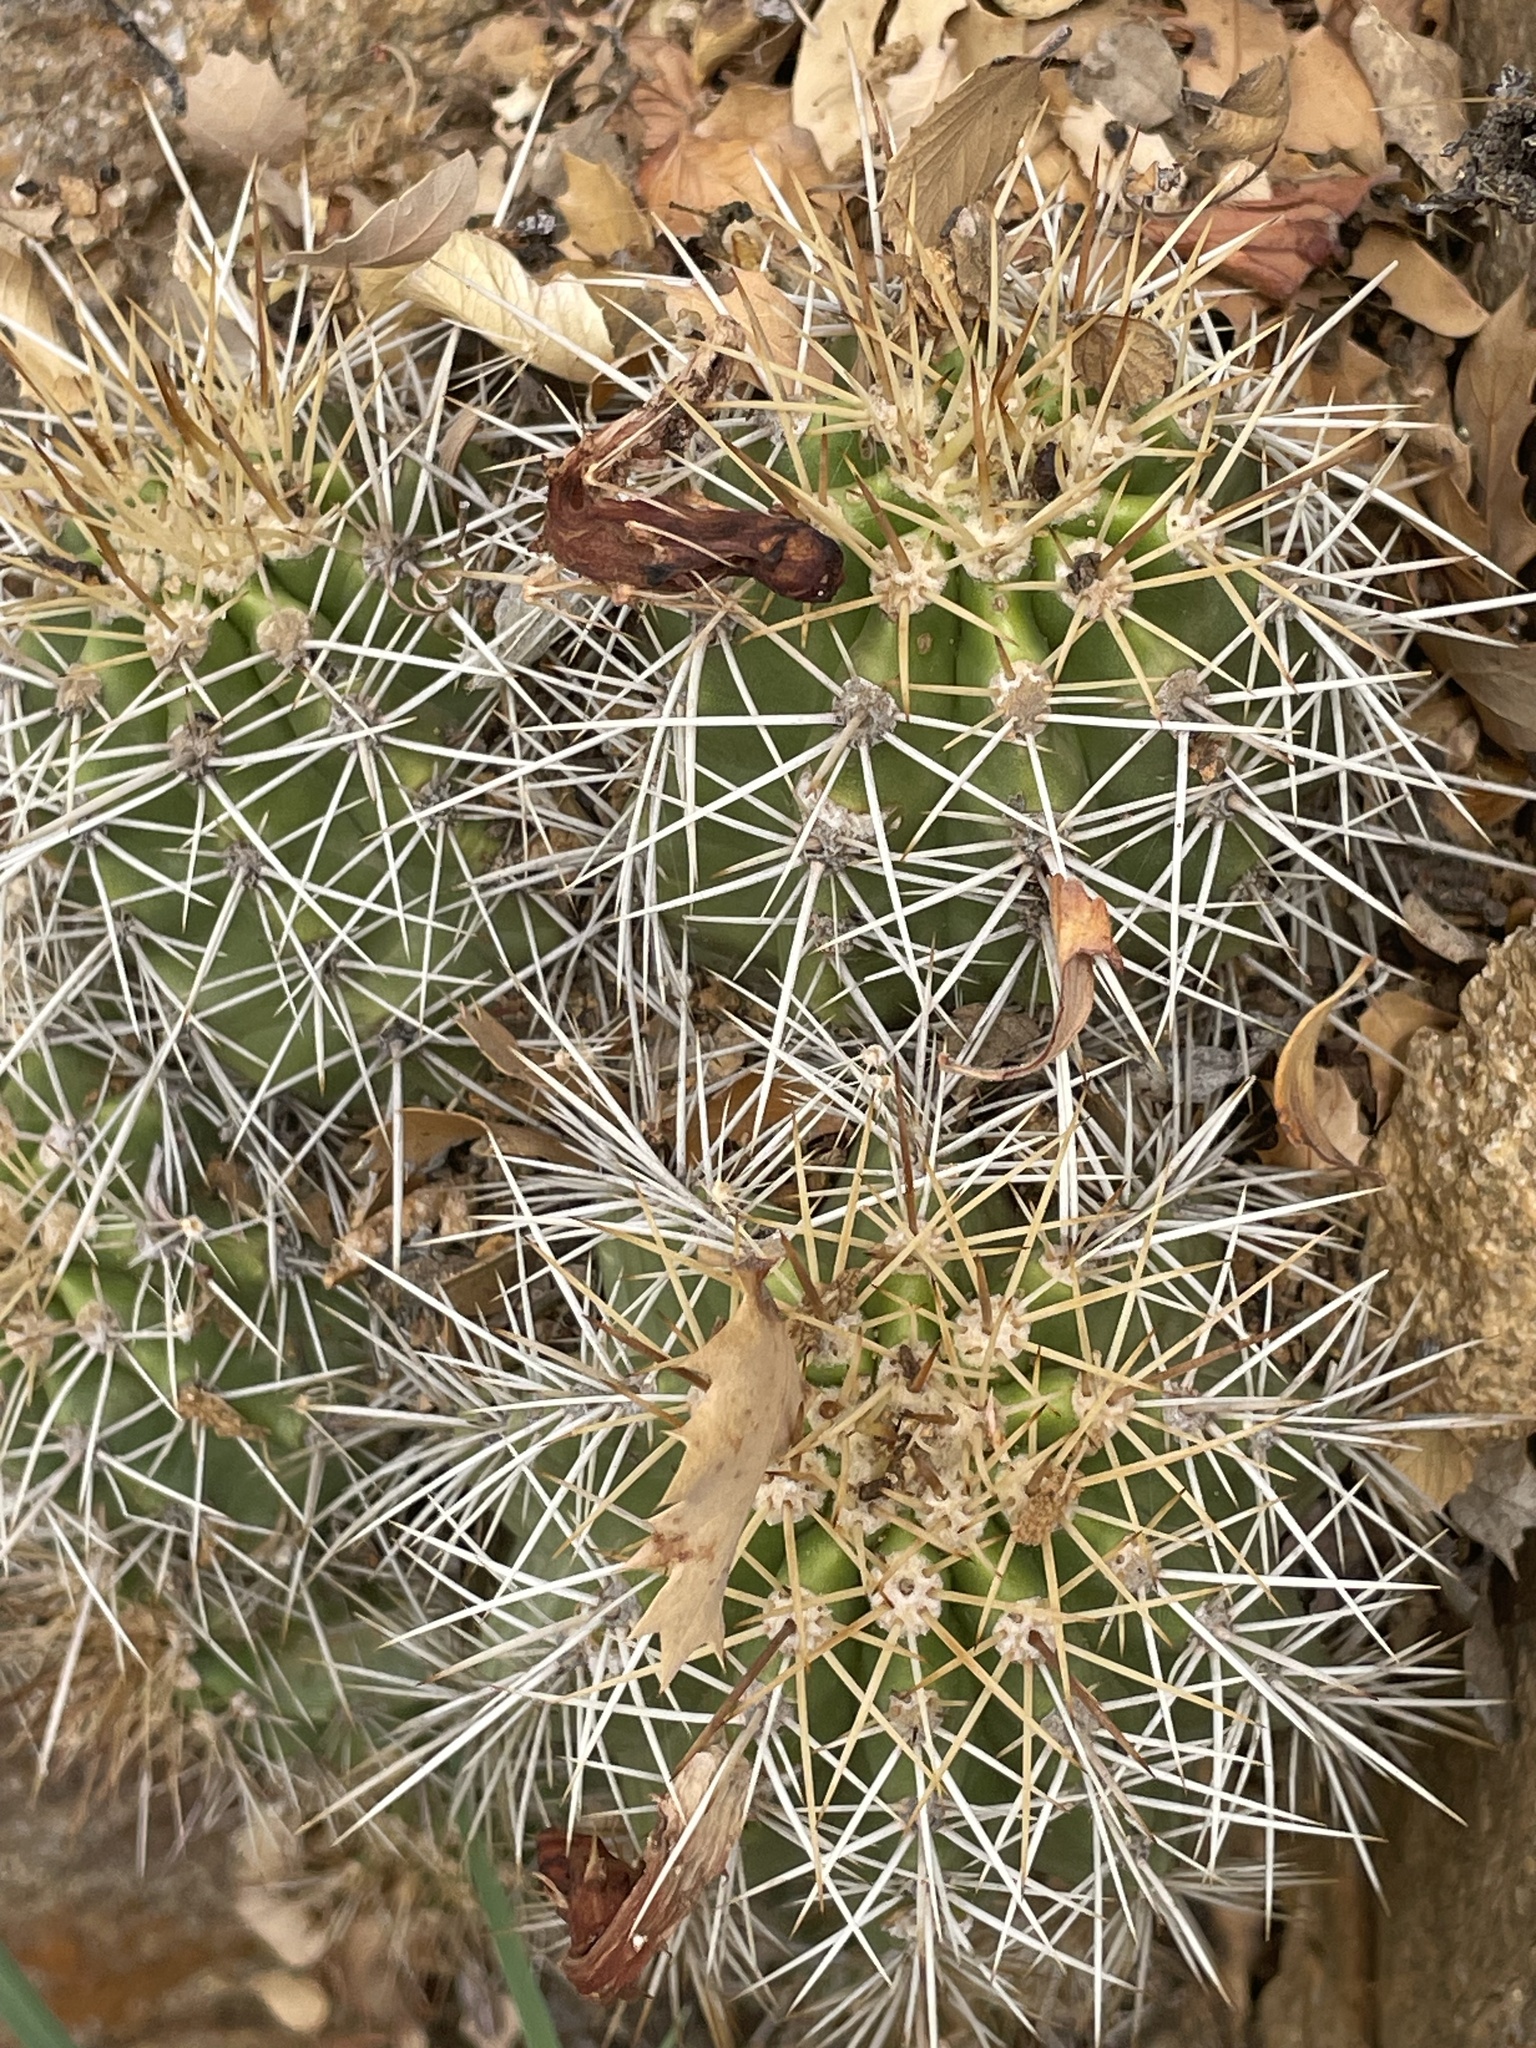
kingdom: Plantae
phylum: Tracheophyta
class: Magnoliopsida
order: Caryophyllales
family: Cactaceae
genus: Echinocereus
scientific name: Echinocereus yavapaiensis
